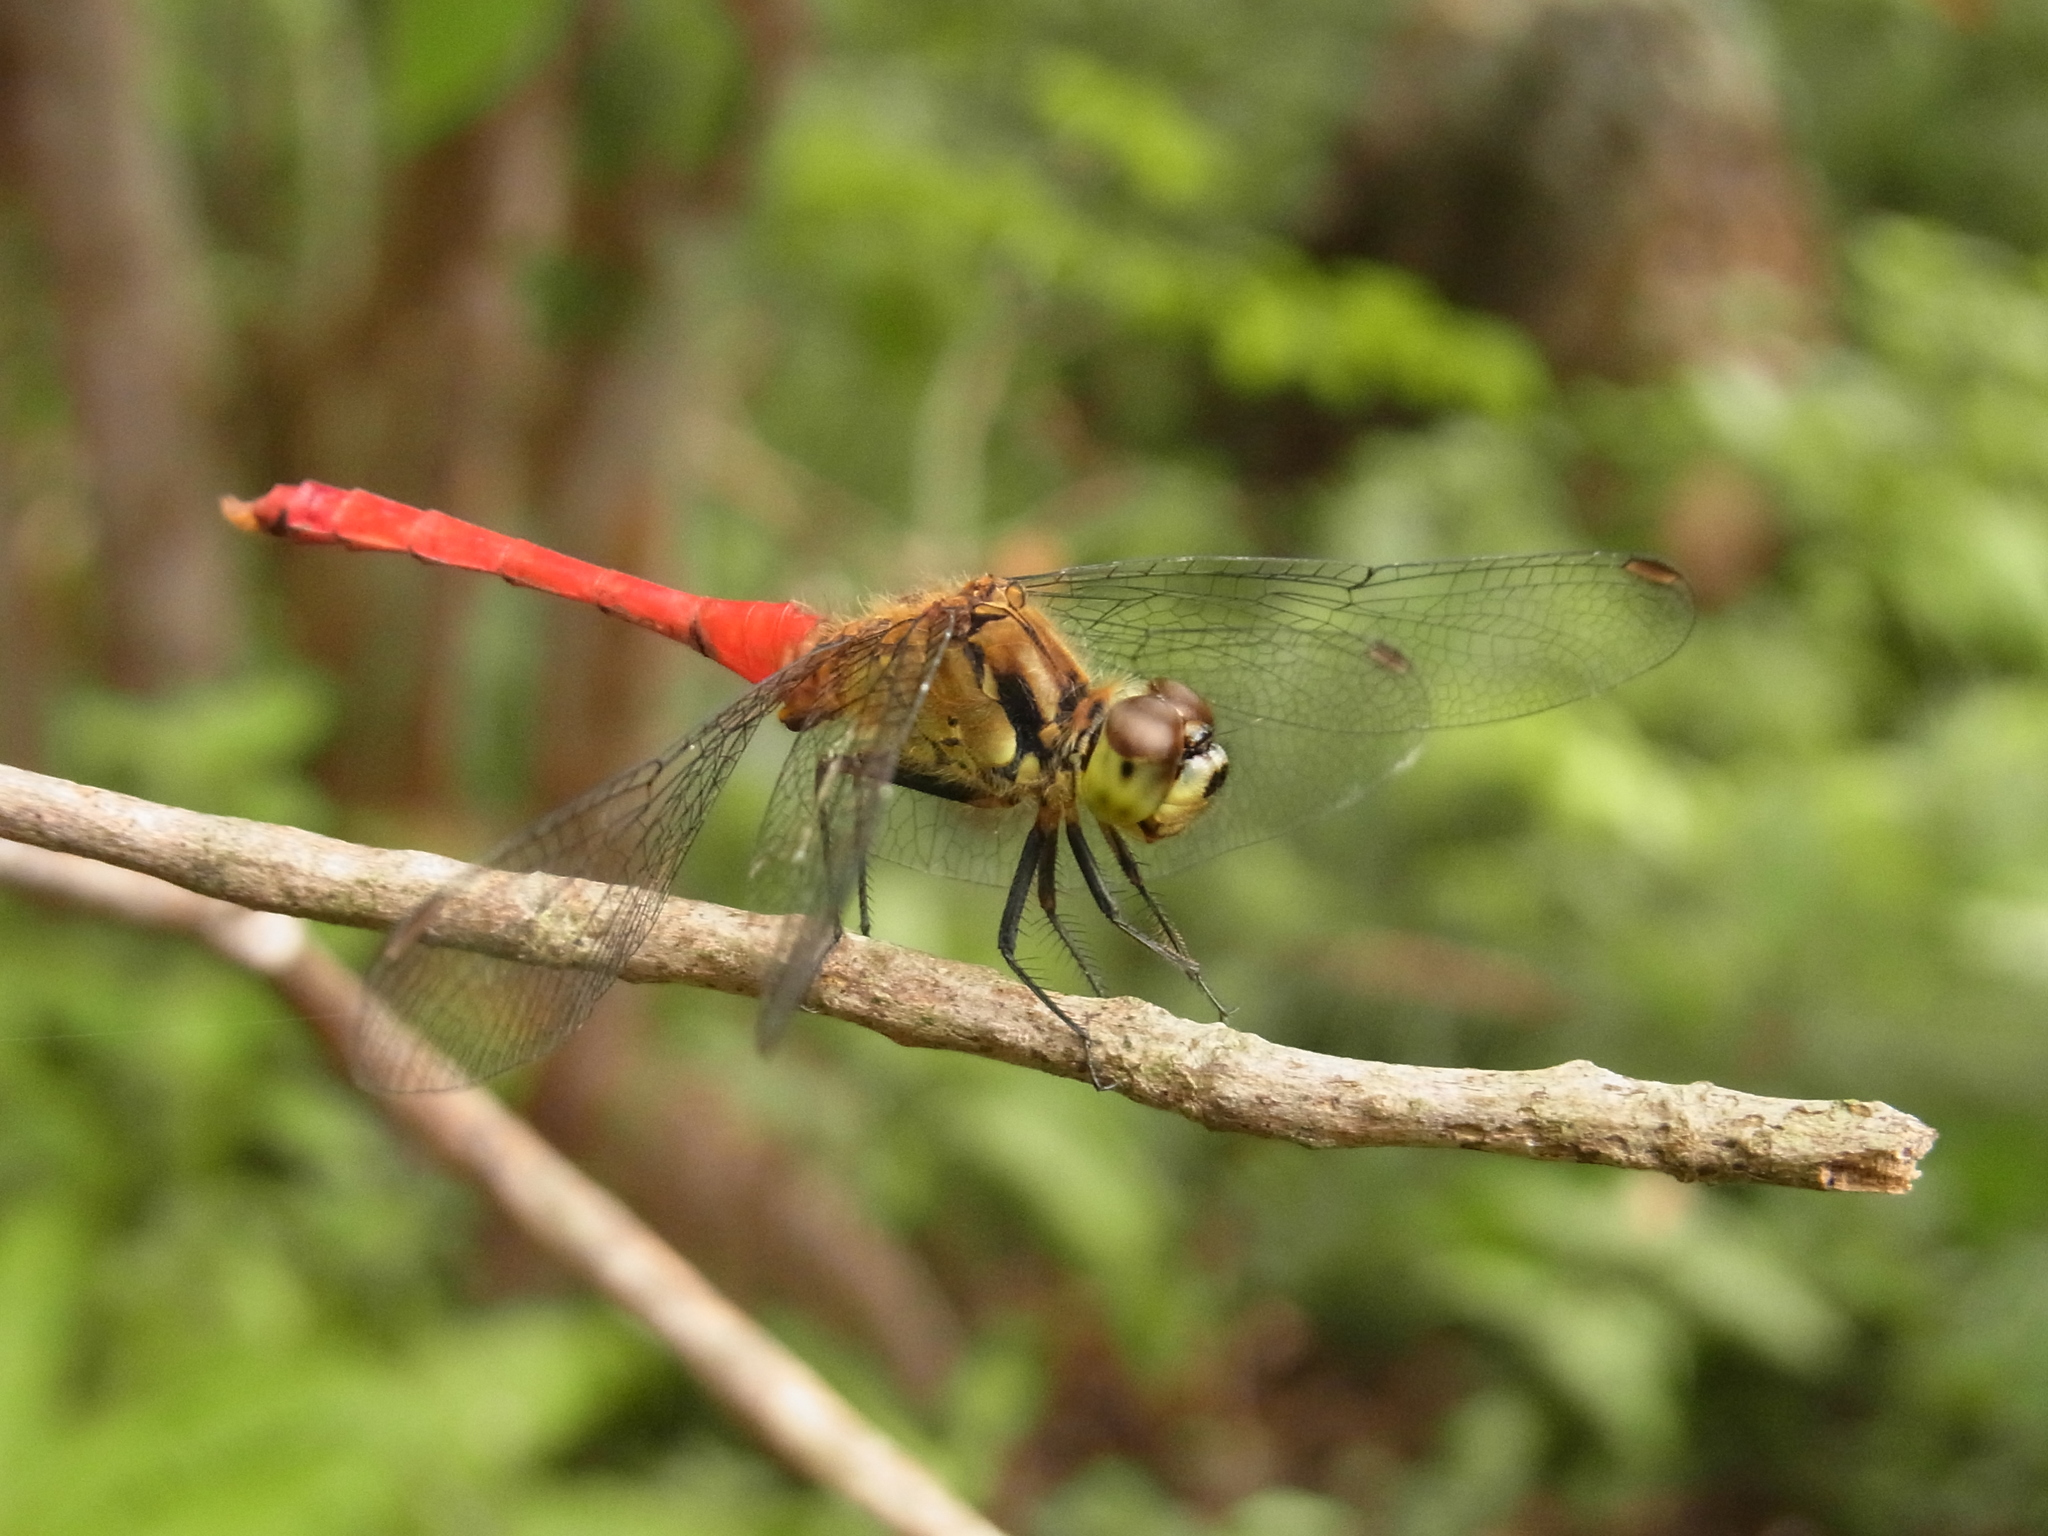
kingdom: Animalia
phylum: Arthropoda
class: Insecta
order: Odonata
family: Libellulidae
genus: Sympetrum
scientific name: Sympetrum eroticum
